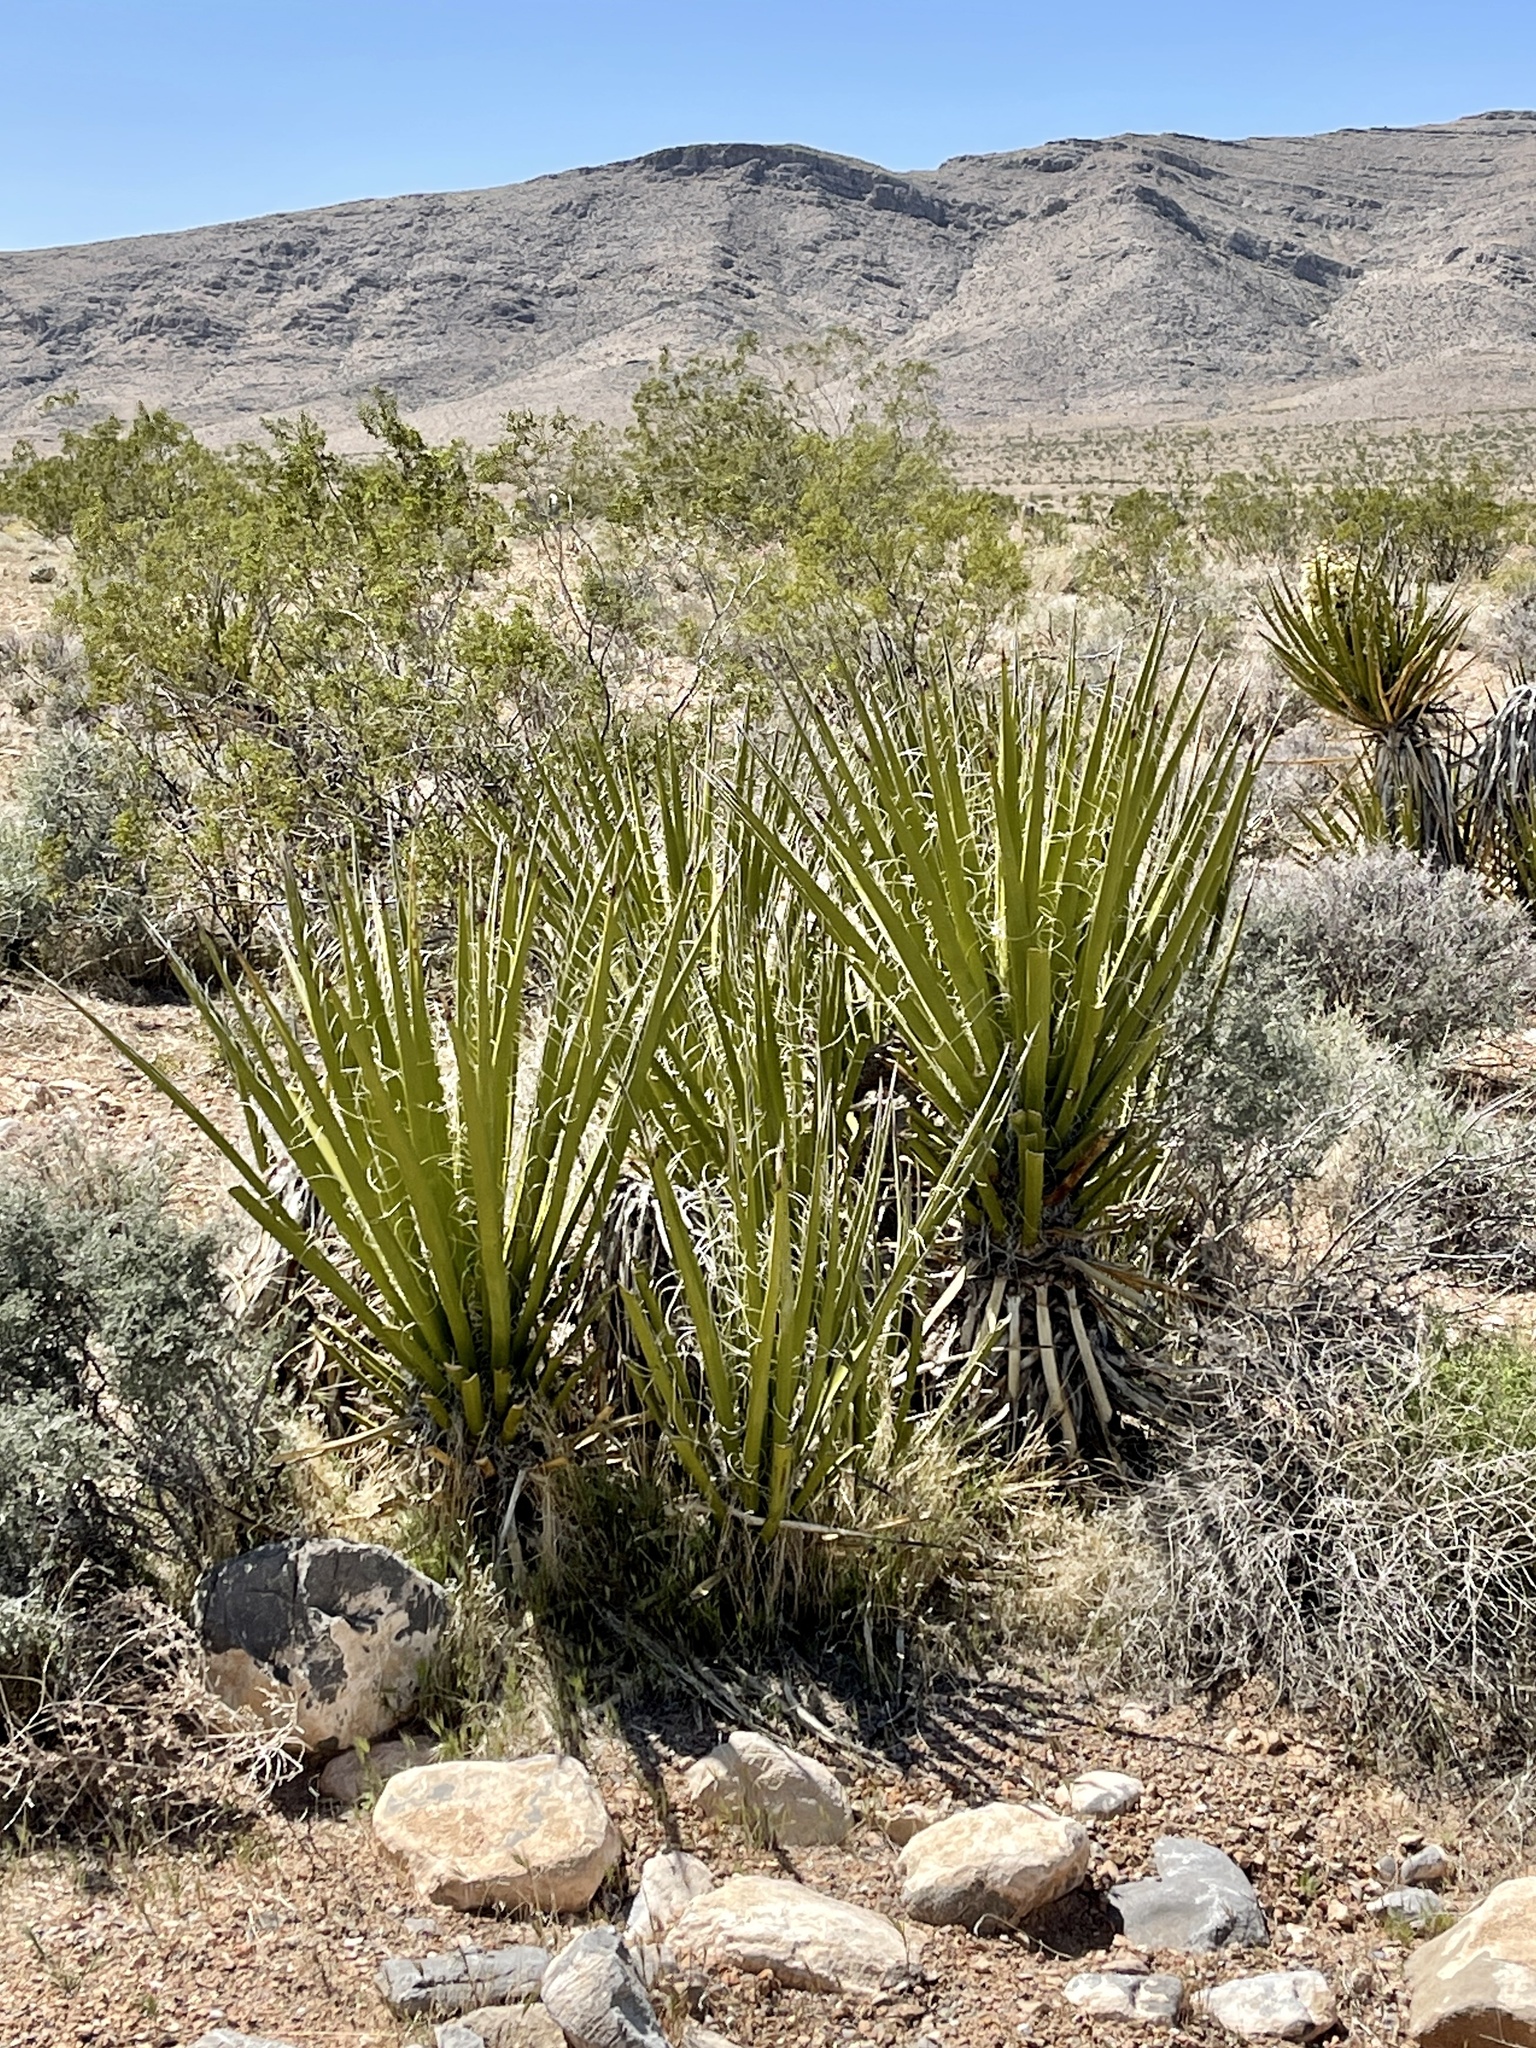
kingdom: Plantae
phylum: Tracheophyta
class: Liliopsida
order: Asparagales
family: Asparagaceae
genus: Yucca
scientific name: Yucca schidigera
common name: Mojave yucca
